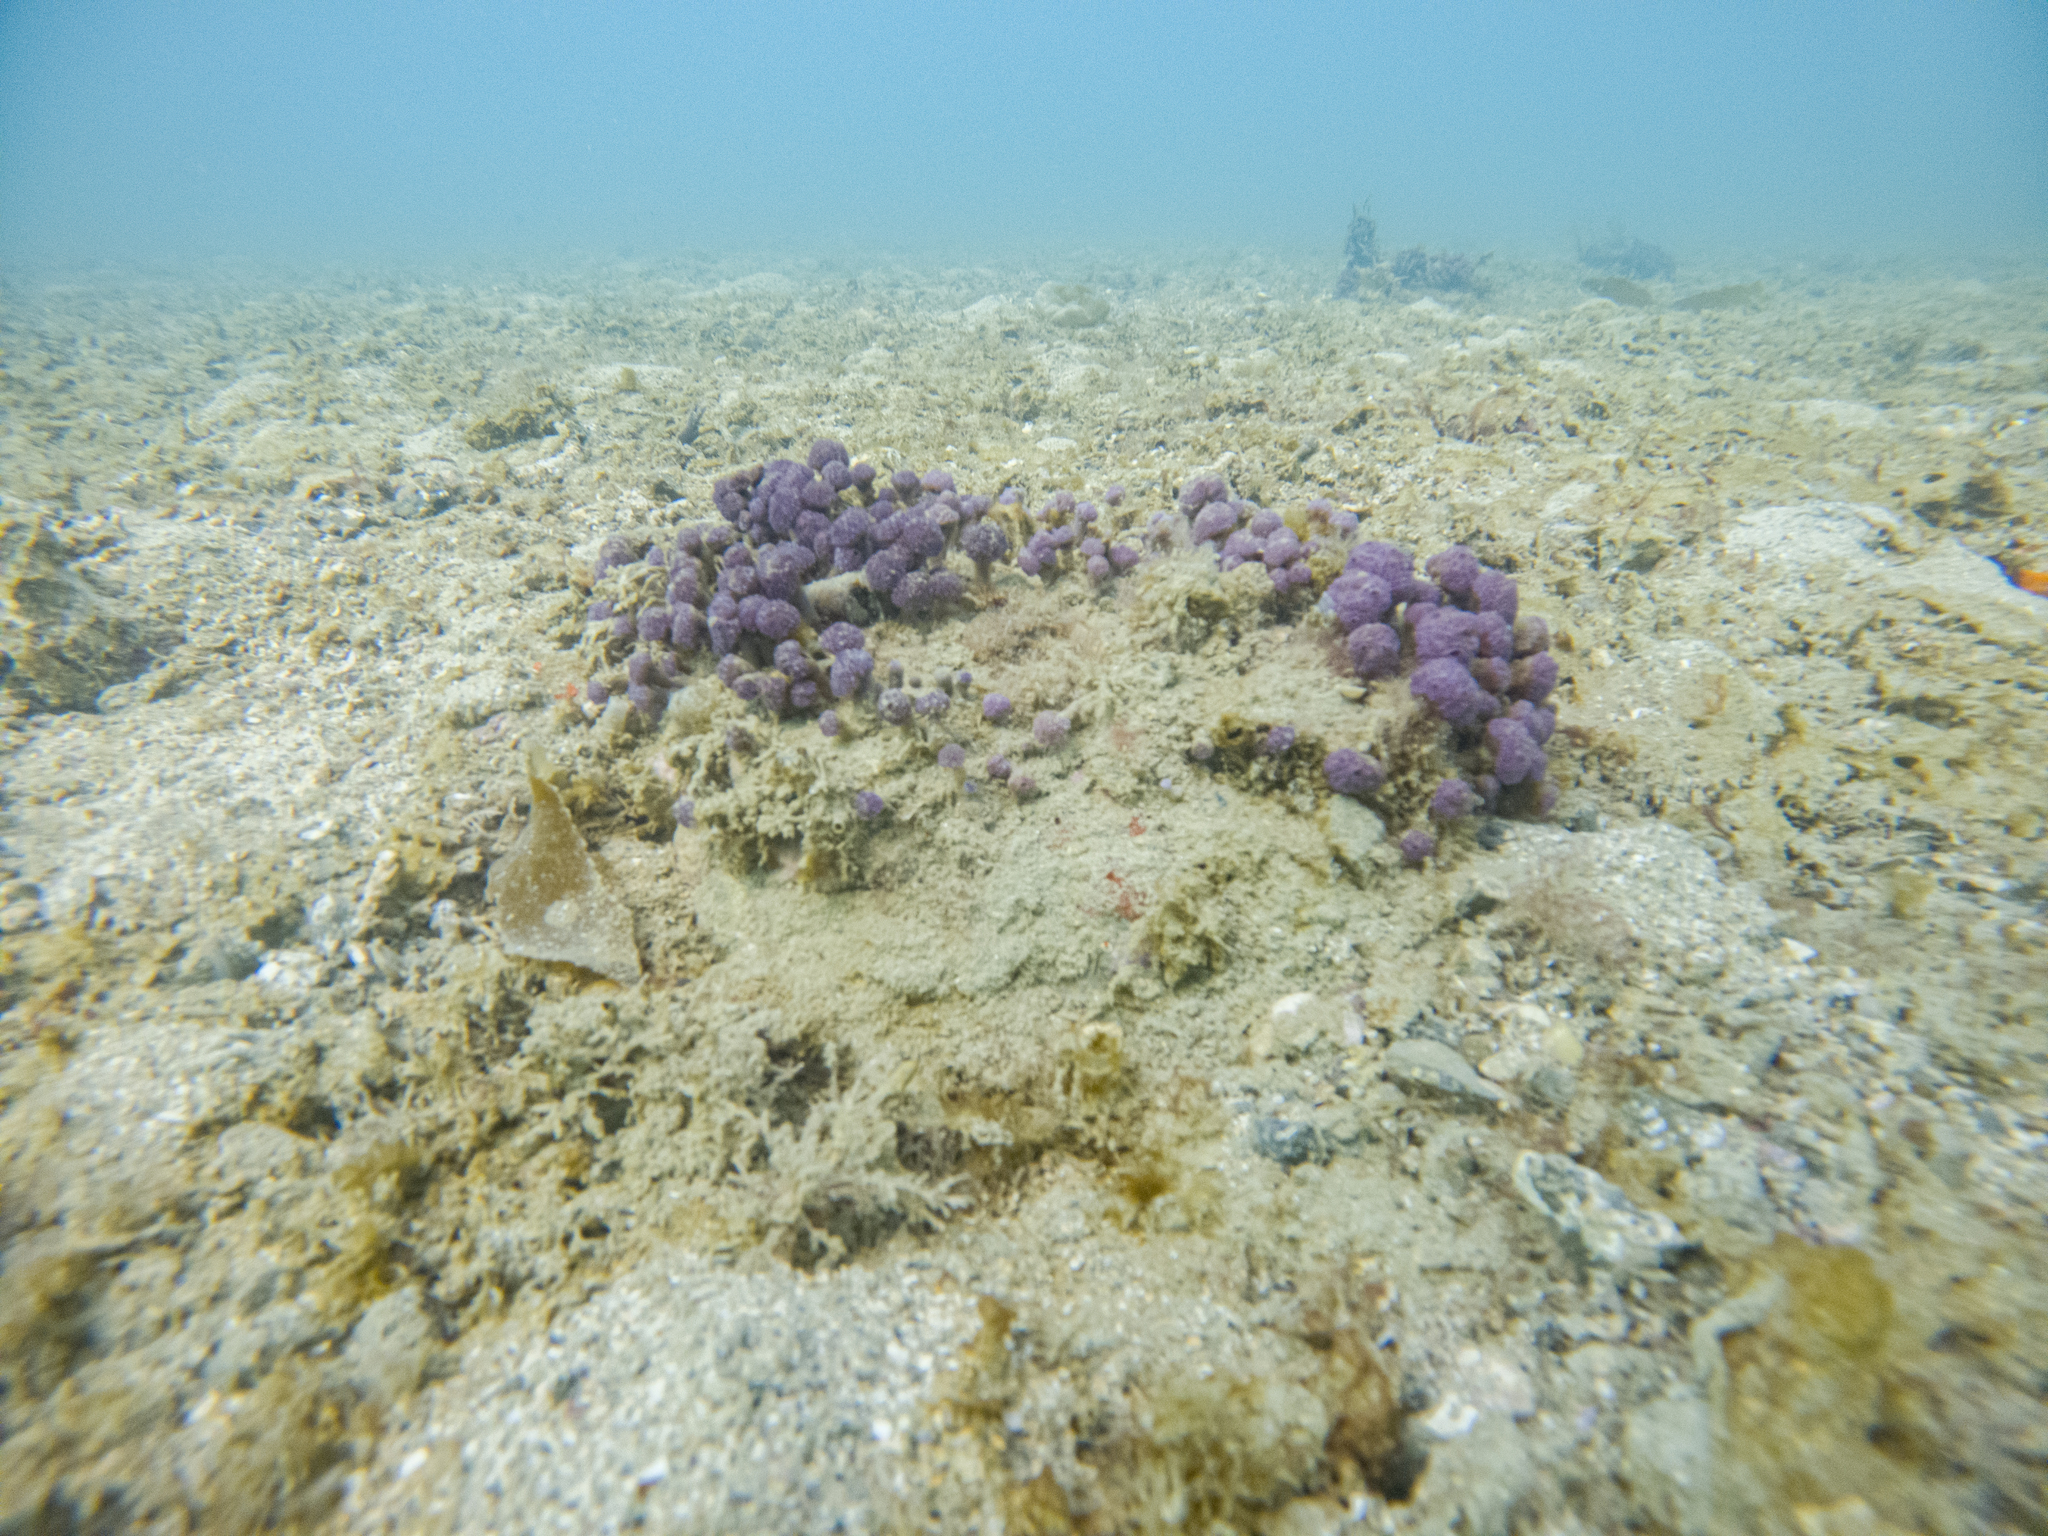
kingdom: Animalia
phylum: Chordata
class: Ascidiacea
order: Aplousobranchia
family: Holozoidae
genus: Hypsistozoa
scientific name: Hypsistozoa fasmeriana
